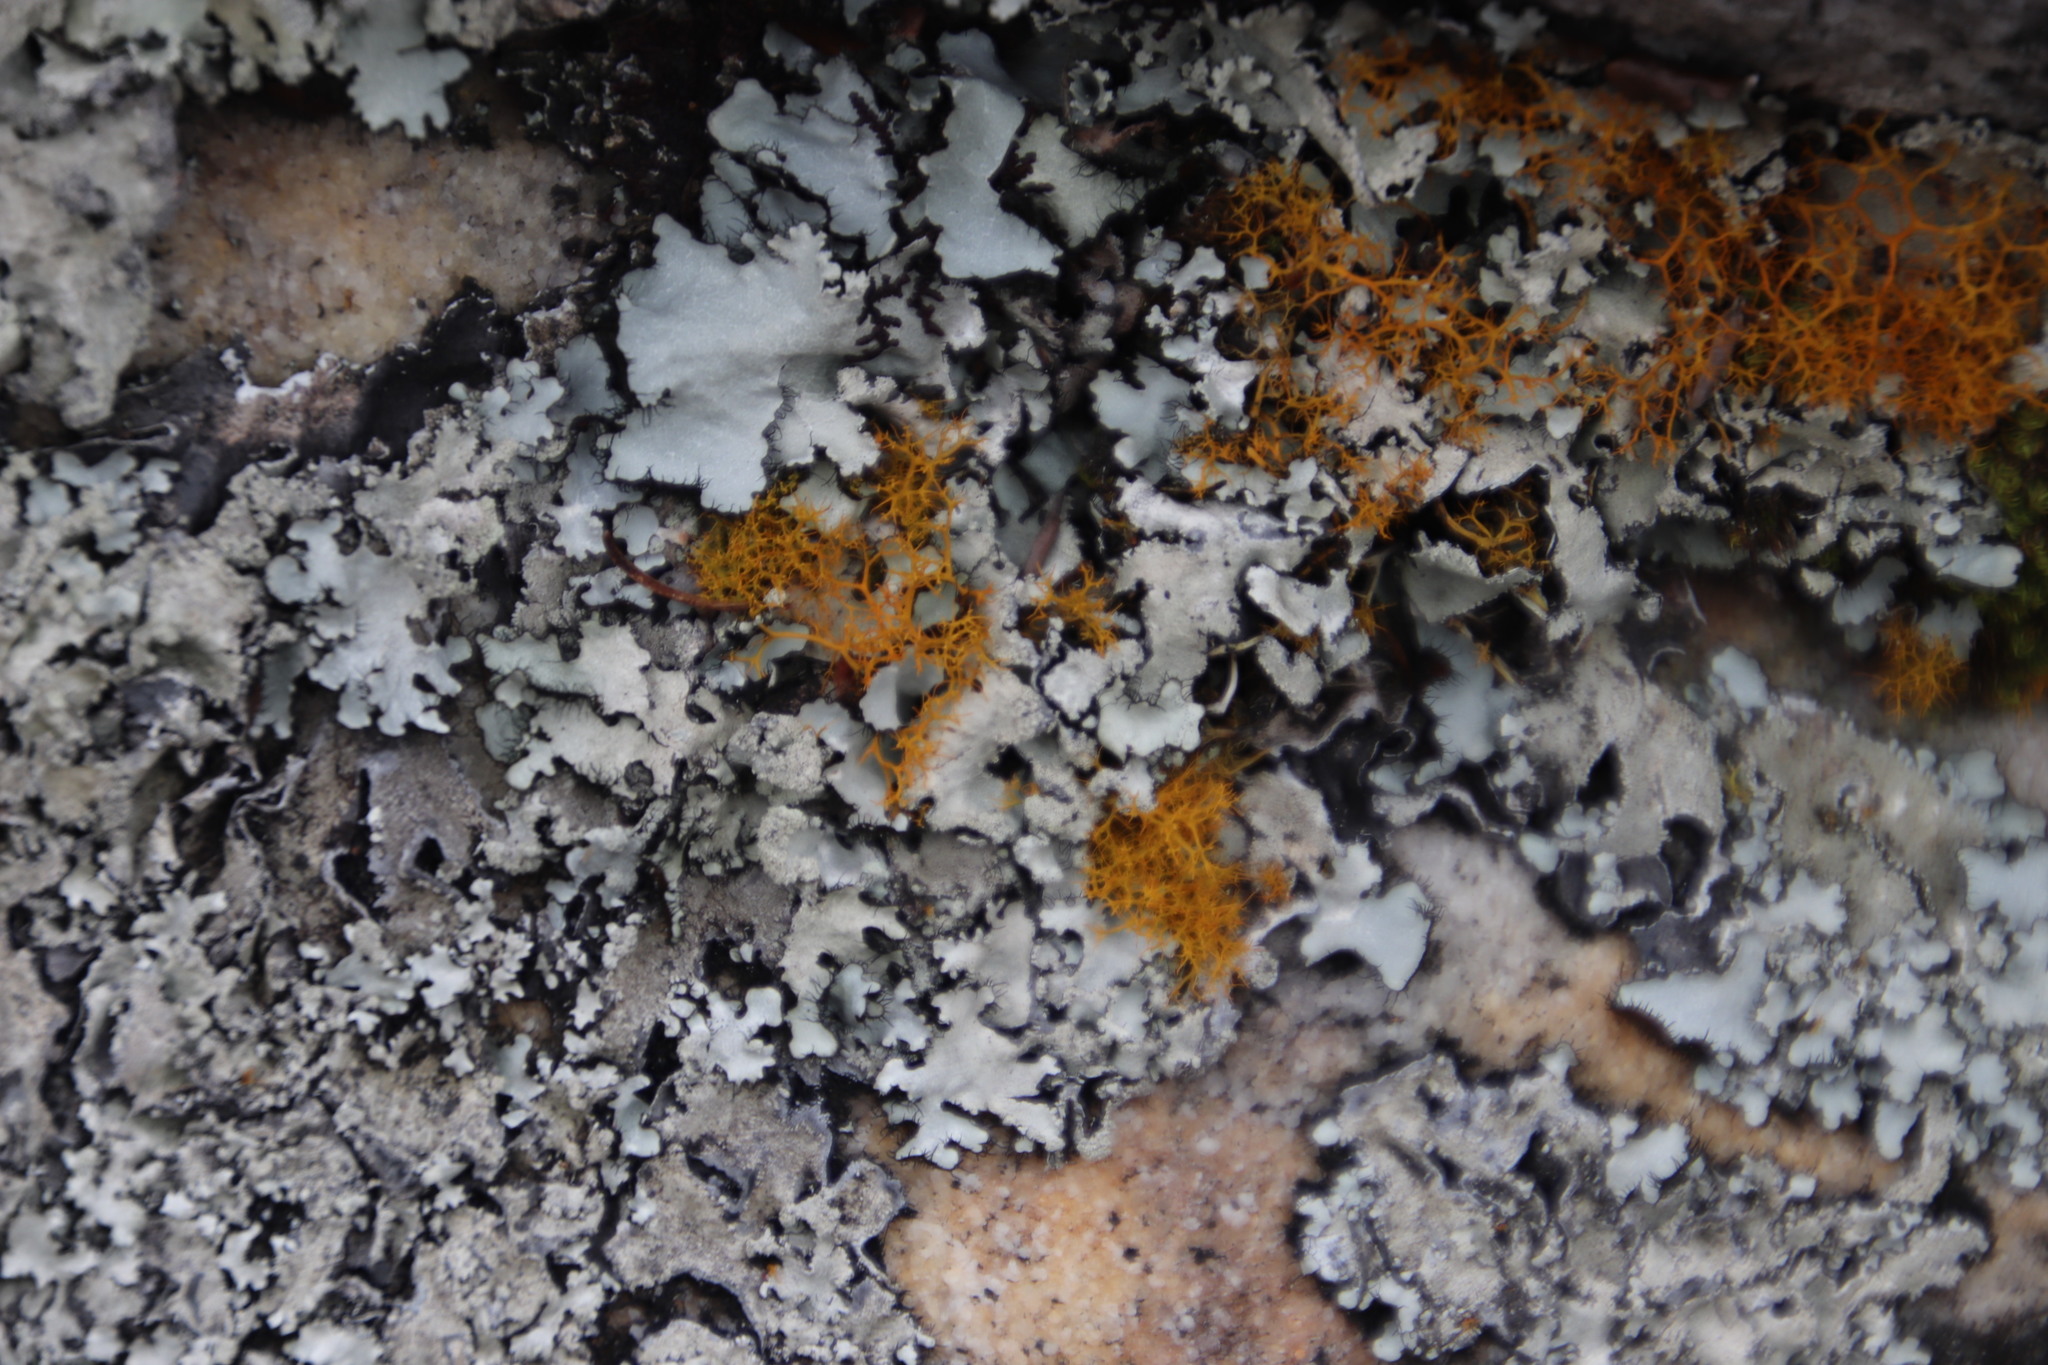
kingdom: Fungi
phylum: Ascomycota
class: Lecanoromycetes
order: Teloschistales
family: Teloschistaceae
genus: Teloschistes
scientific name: Teloschistes flavicans
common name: Golden hair-lichen
